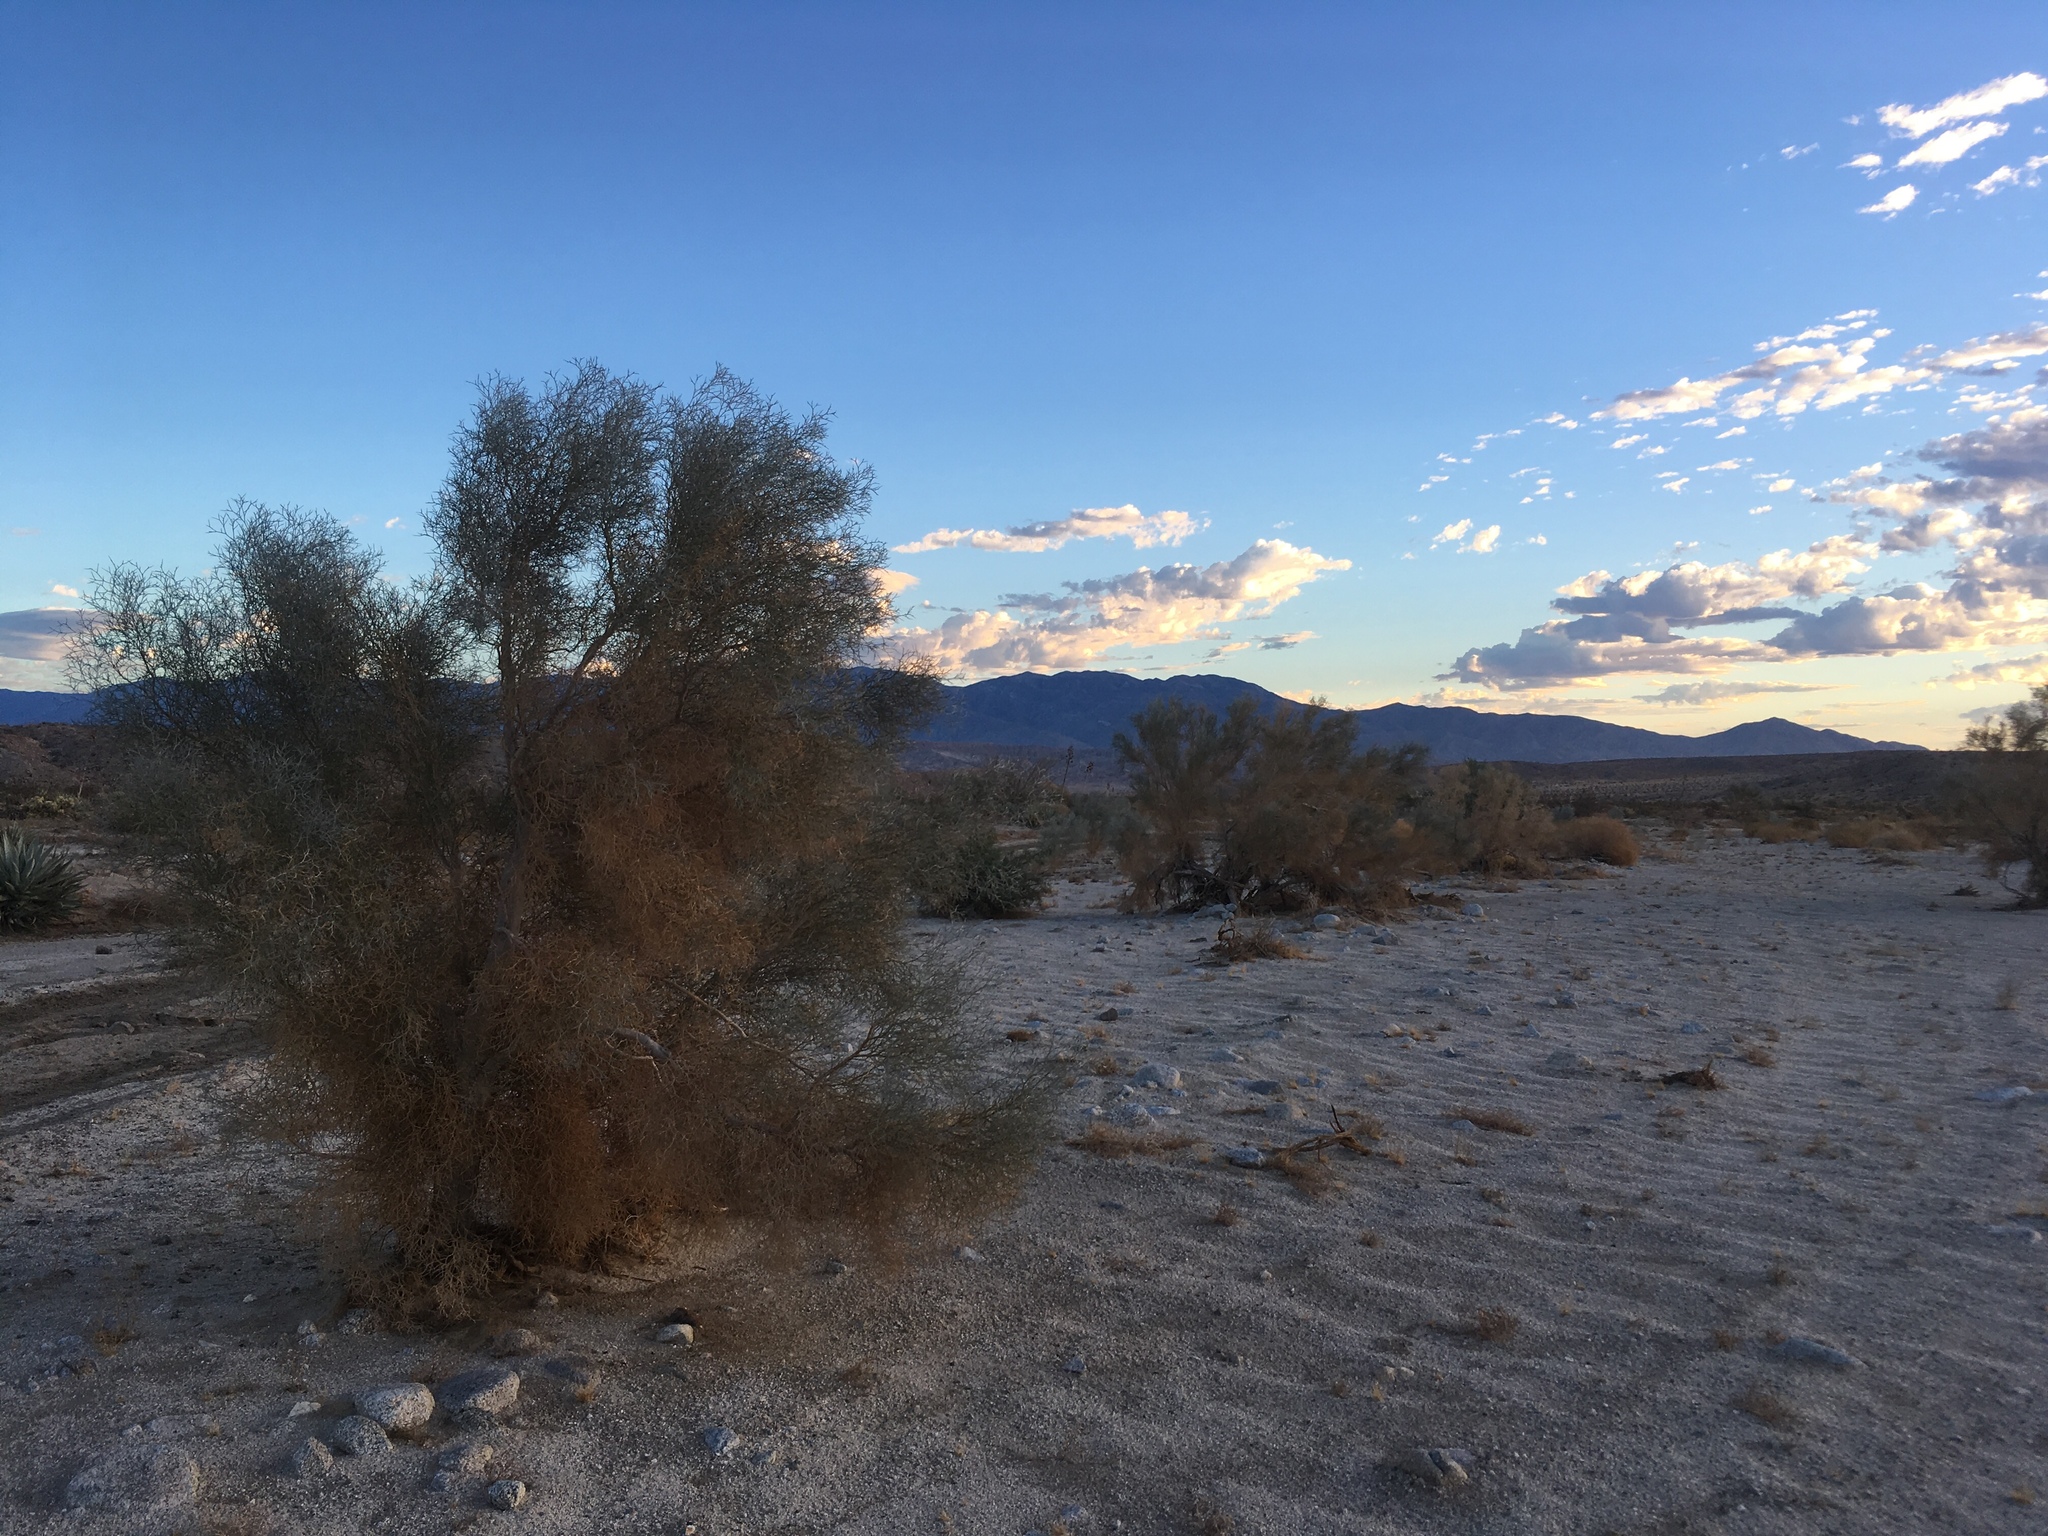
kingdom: Plantae
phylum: Tracheophyta
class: Magnoliopsida
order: Fabales
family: Fabaceae
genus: Psorothamnus
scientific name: Psorothamnus spinosus
